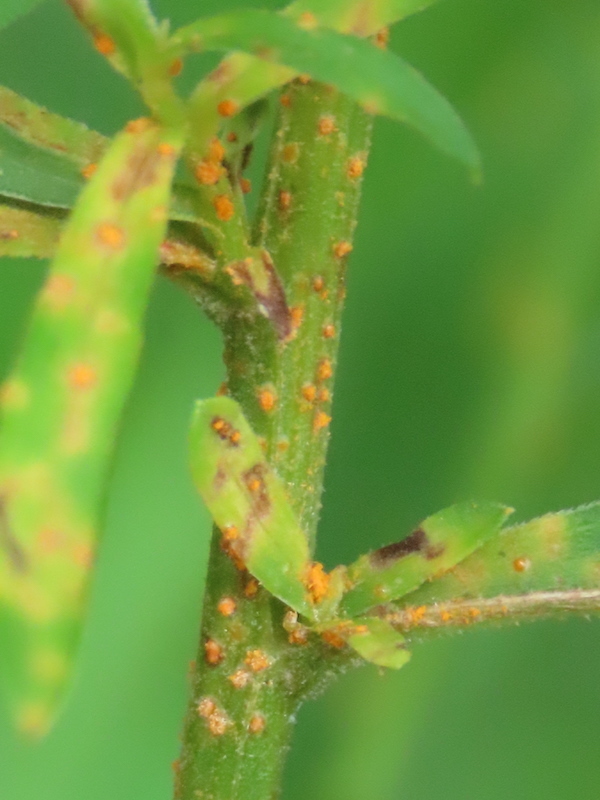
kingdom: Fungi
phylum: Basidiomycota
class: Pucciniomycetes
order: Pucciniales
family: Coleosporiaceae
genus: Coleosporium
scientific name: Coleosporium asterum
